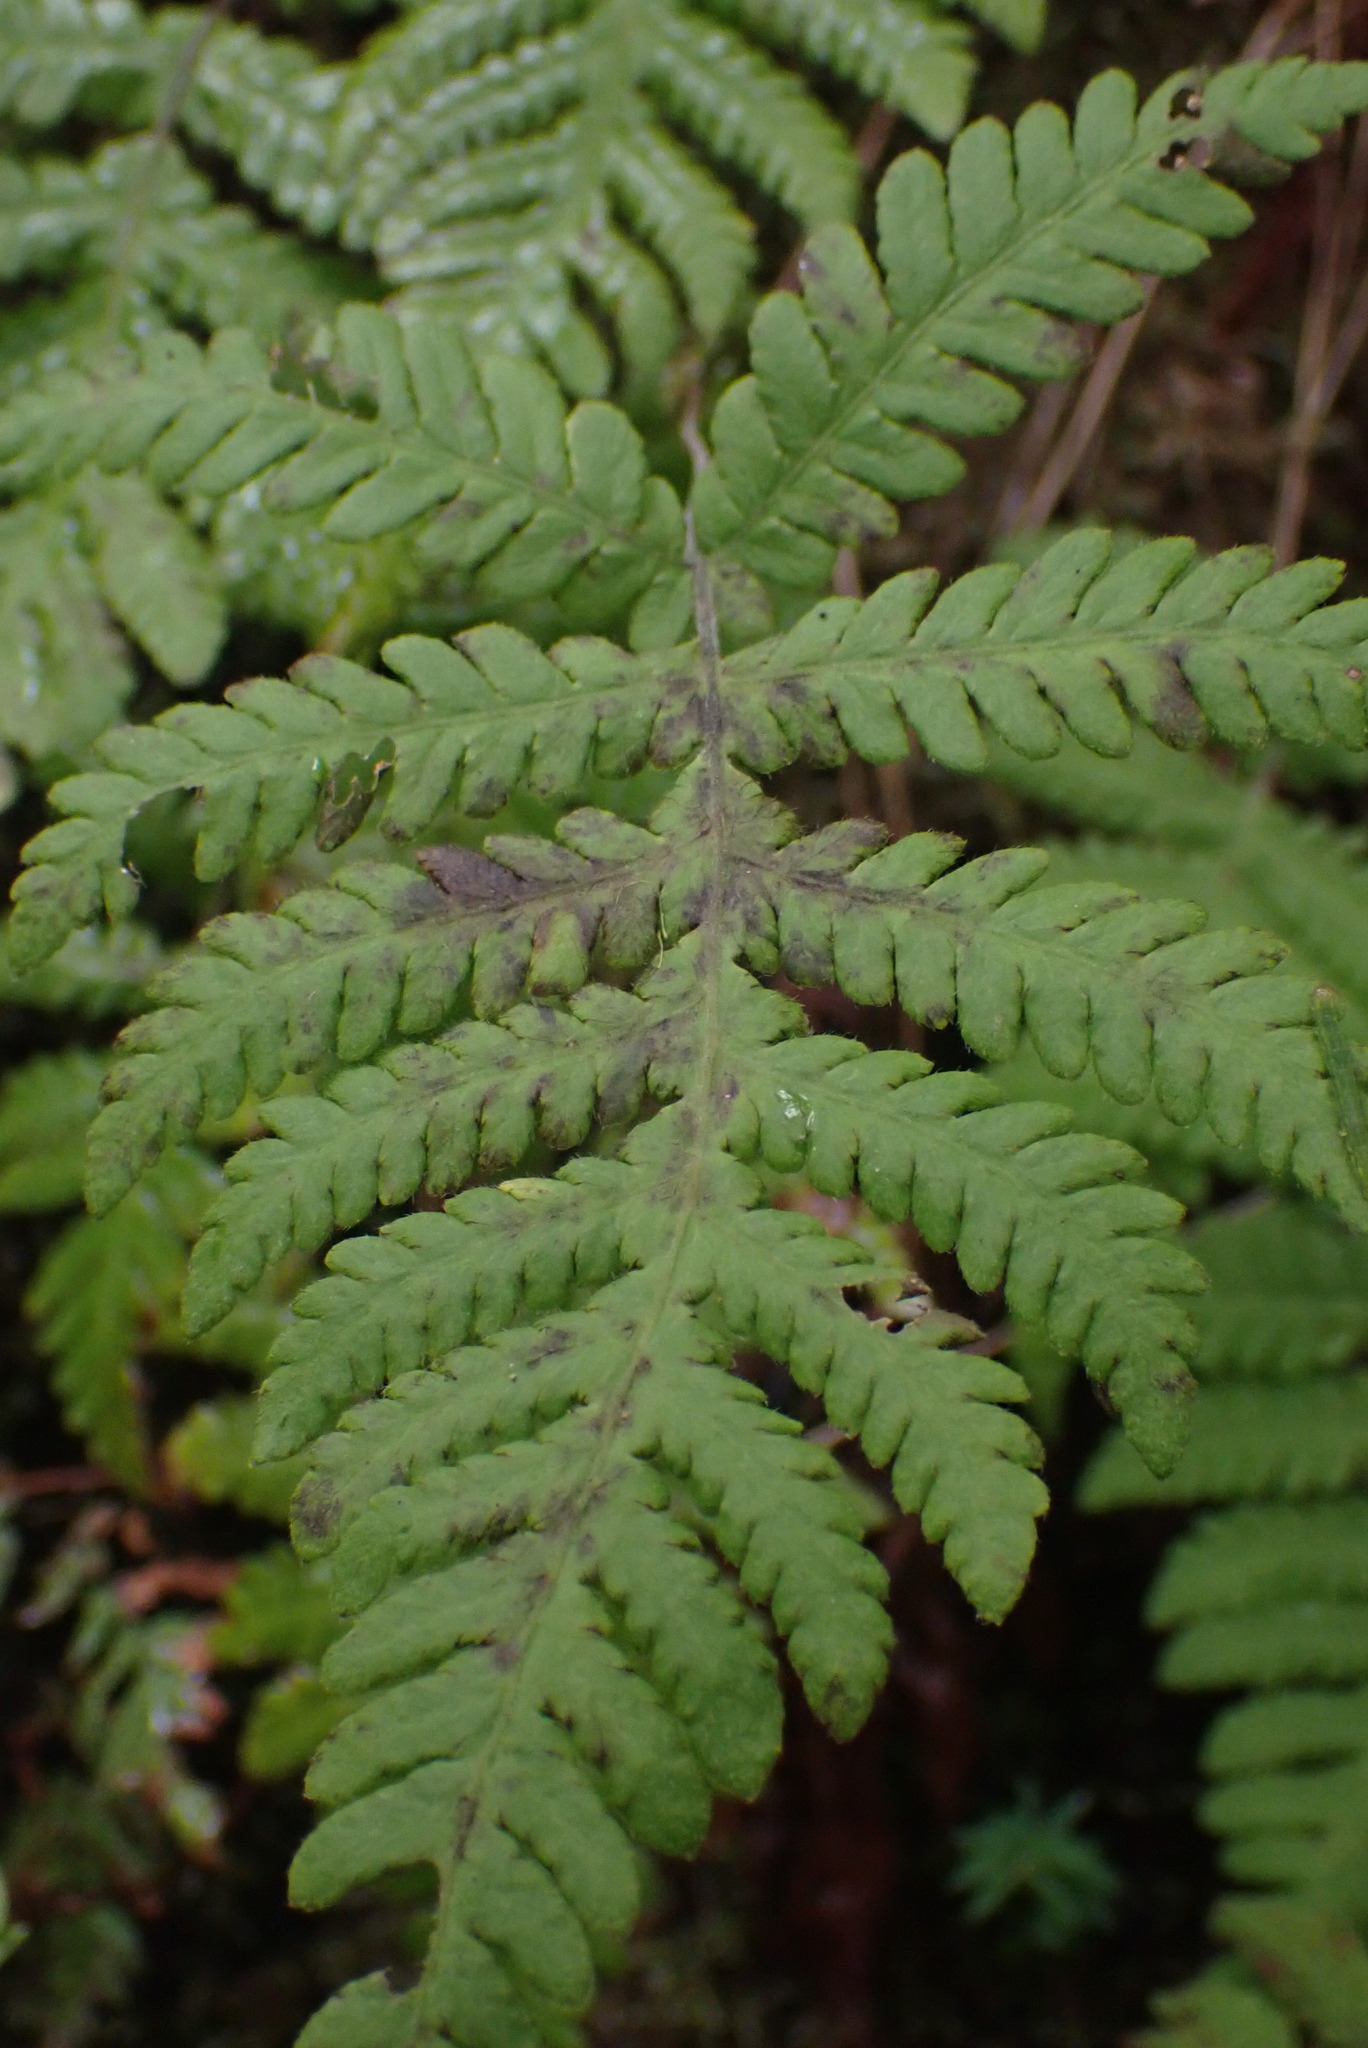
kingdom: Plantae
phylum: Tracheophyta
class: Polypodiopsida
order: Polypodiales
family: Thelypteridaceae
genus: Phegopteris
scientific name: Phegopteris connectilis
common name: Beech fern
